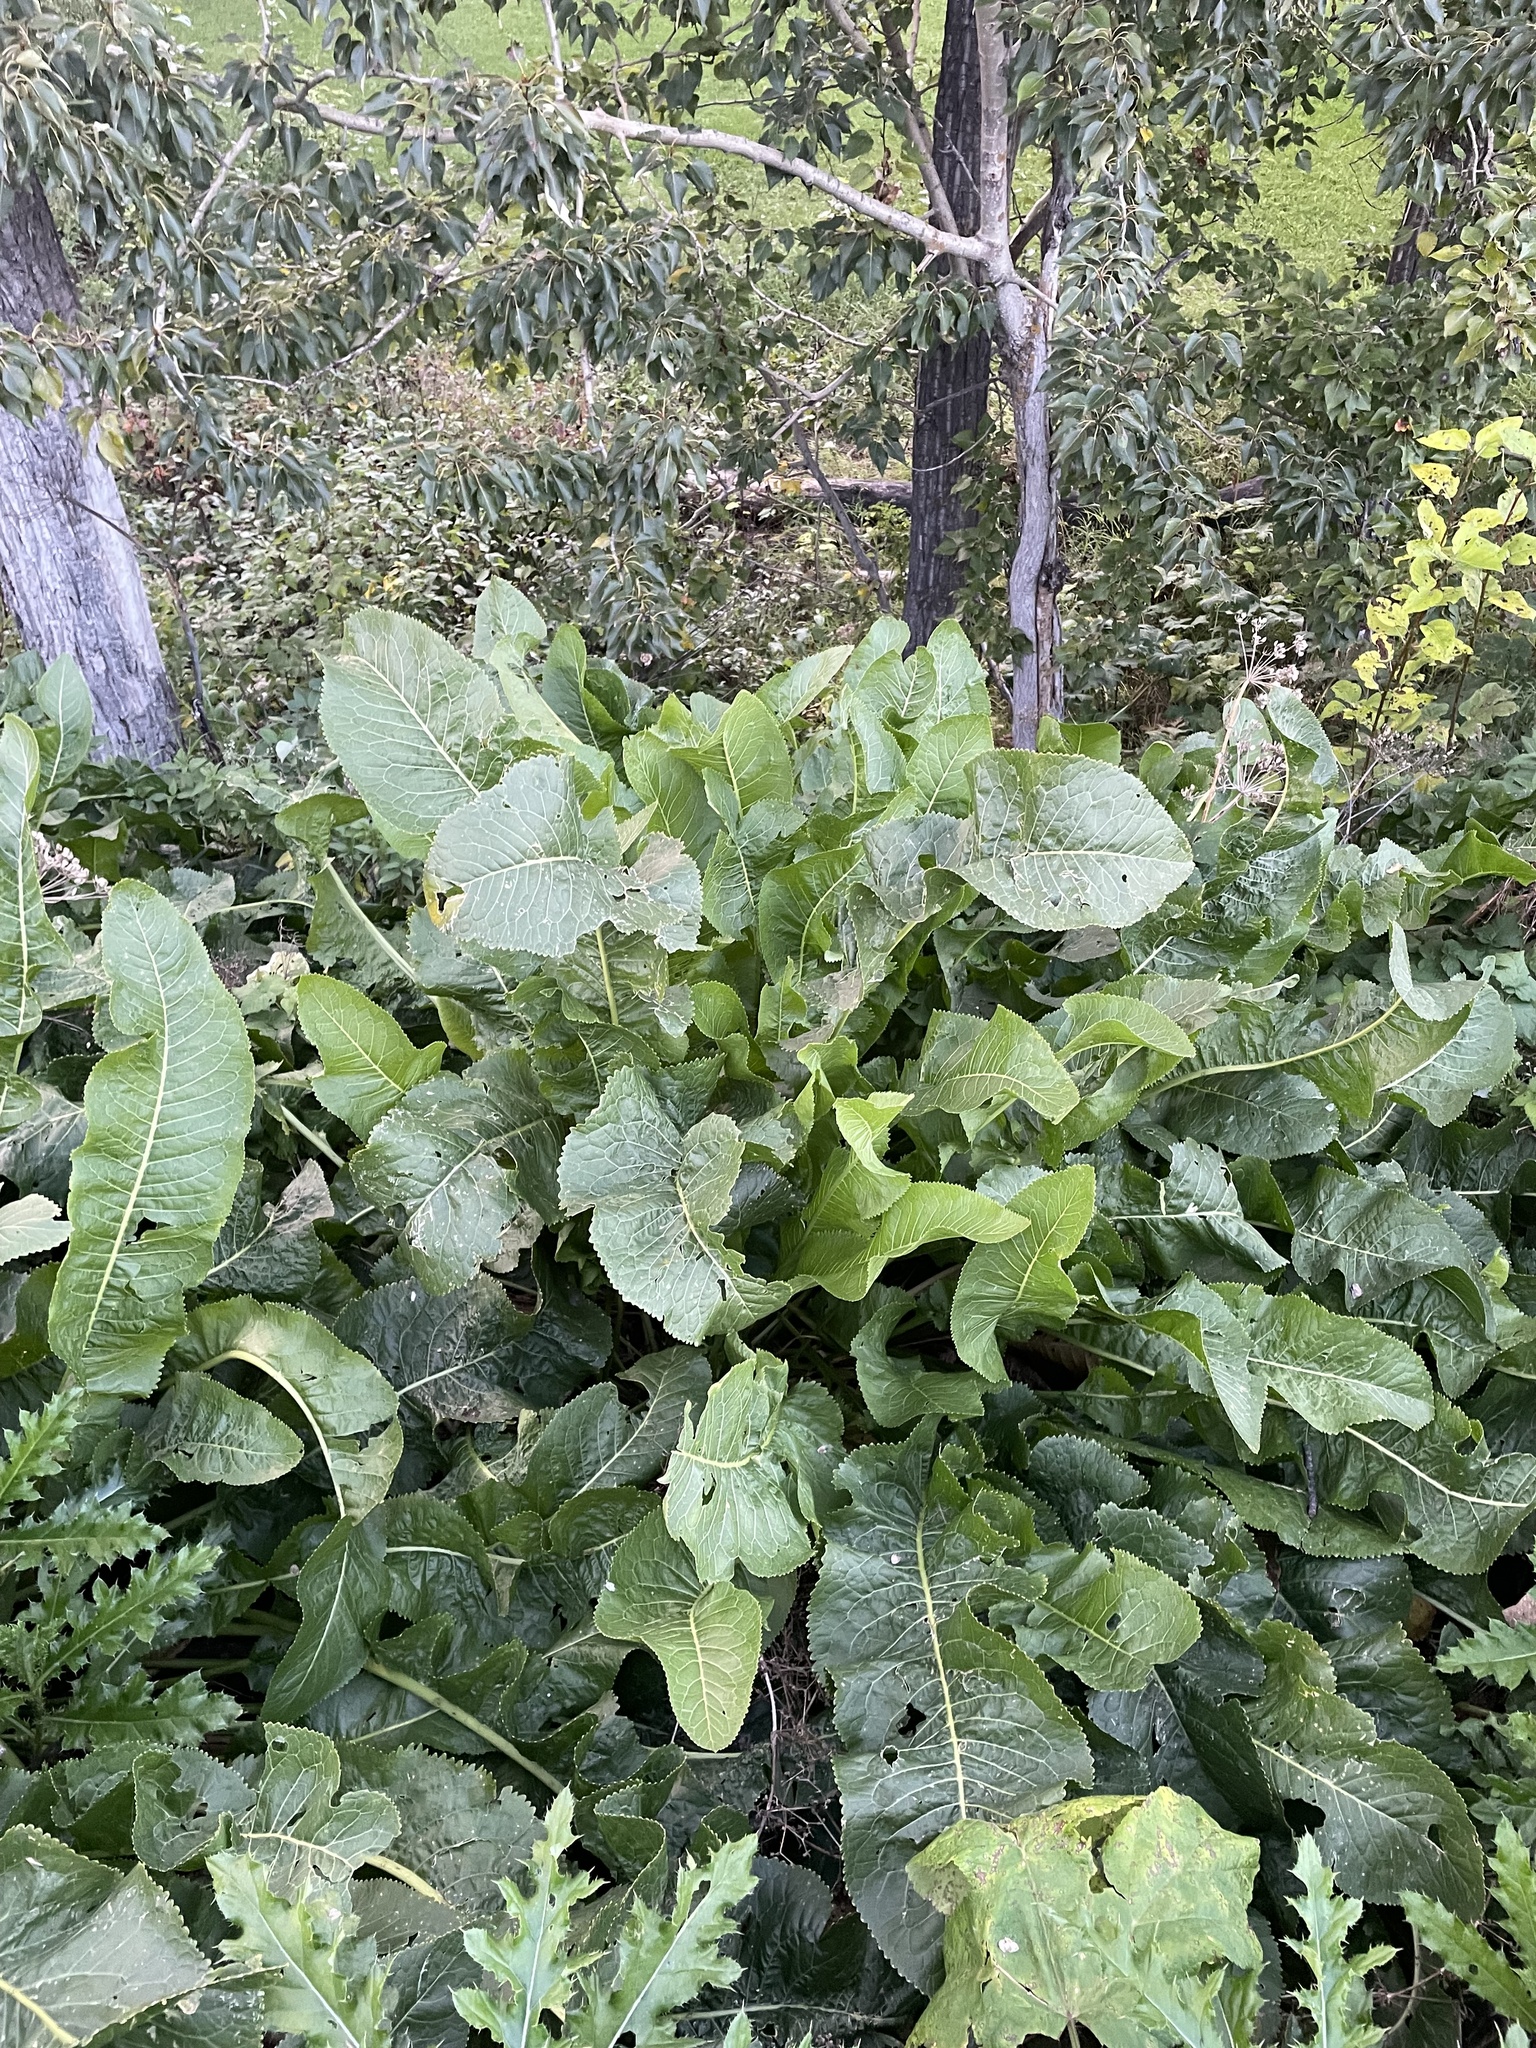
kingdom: Plantae
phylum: Tracheophyta
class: Magnoliopsida
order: Brassicales
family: Brassicaceae
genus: Armoracia
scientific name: Armoracia rusticana
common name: Horseradish
